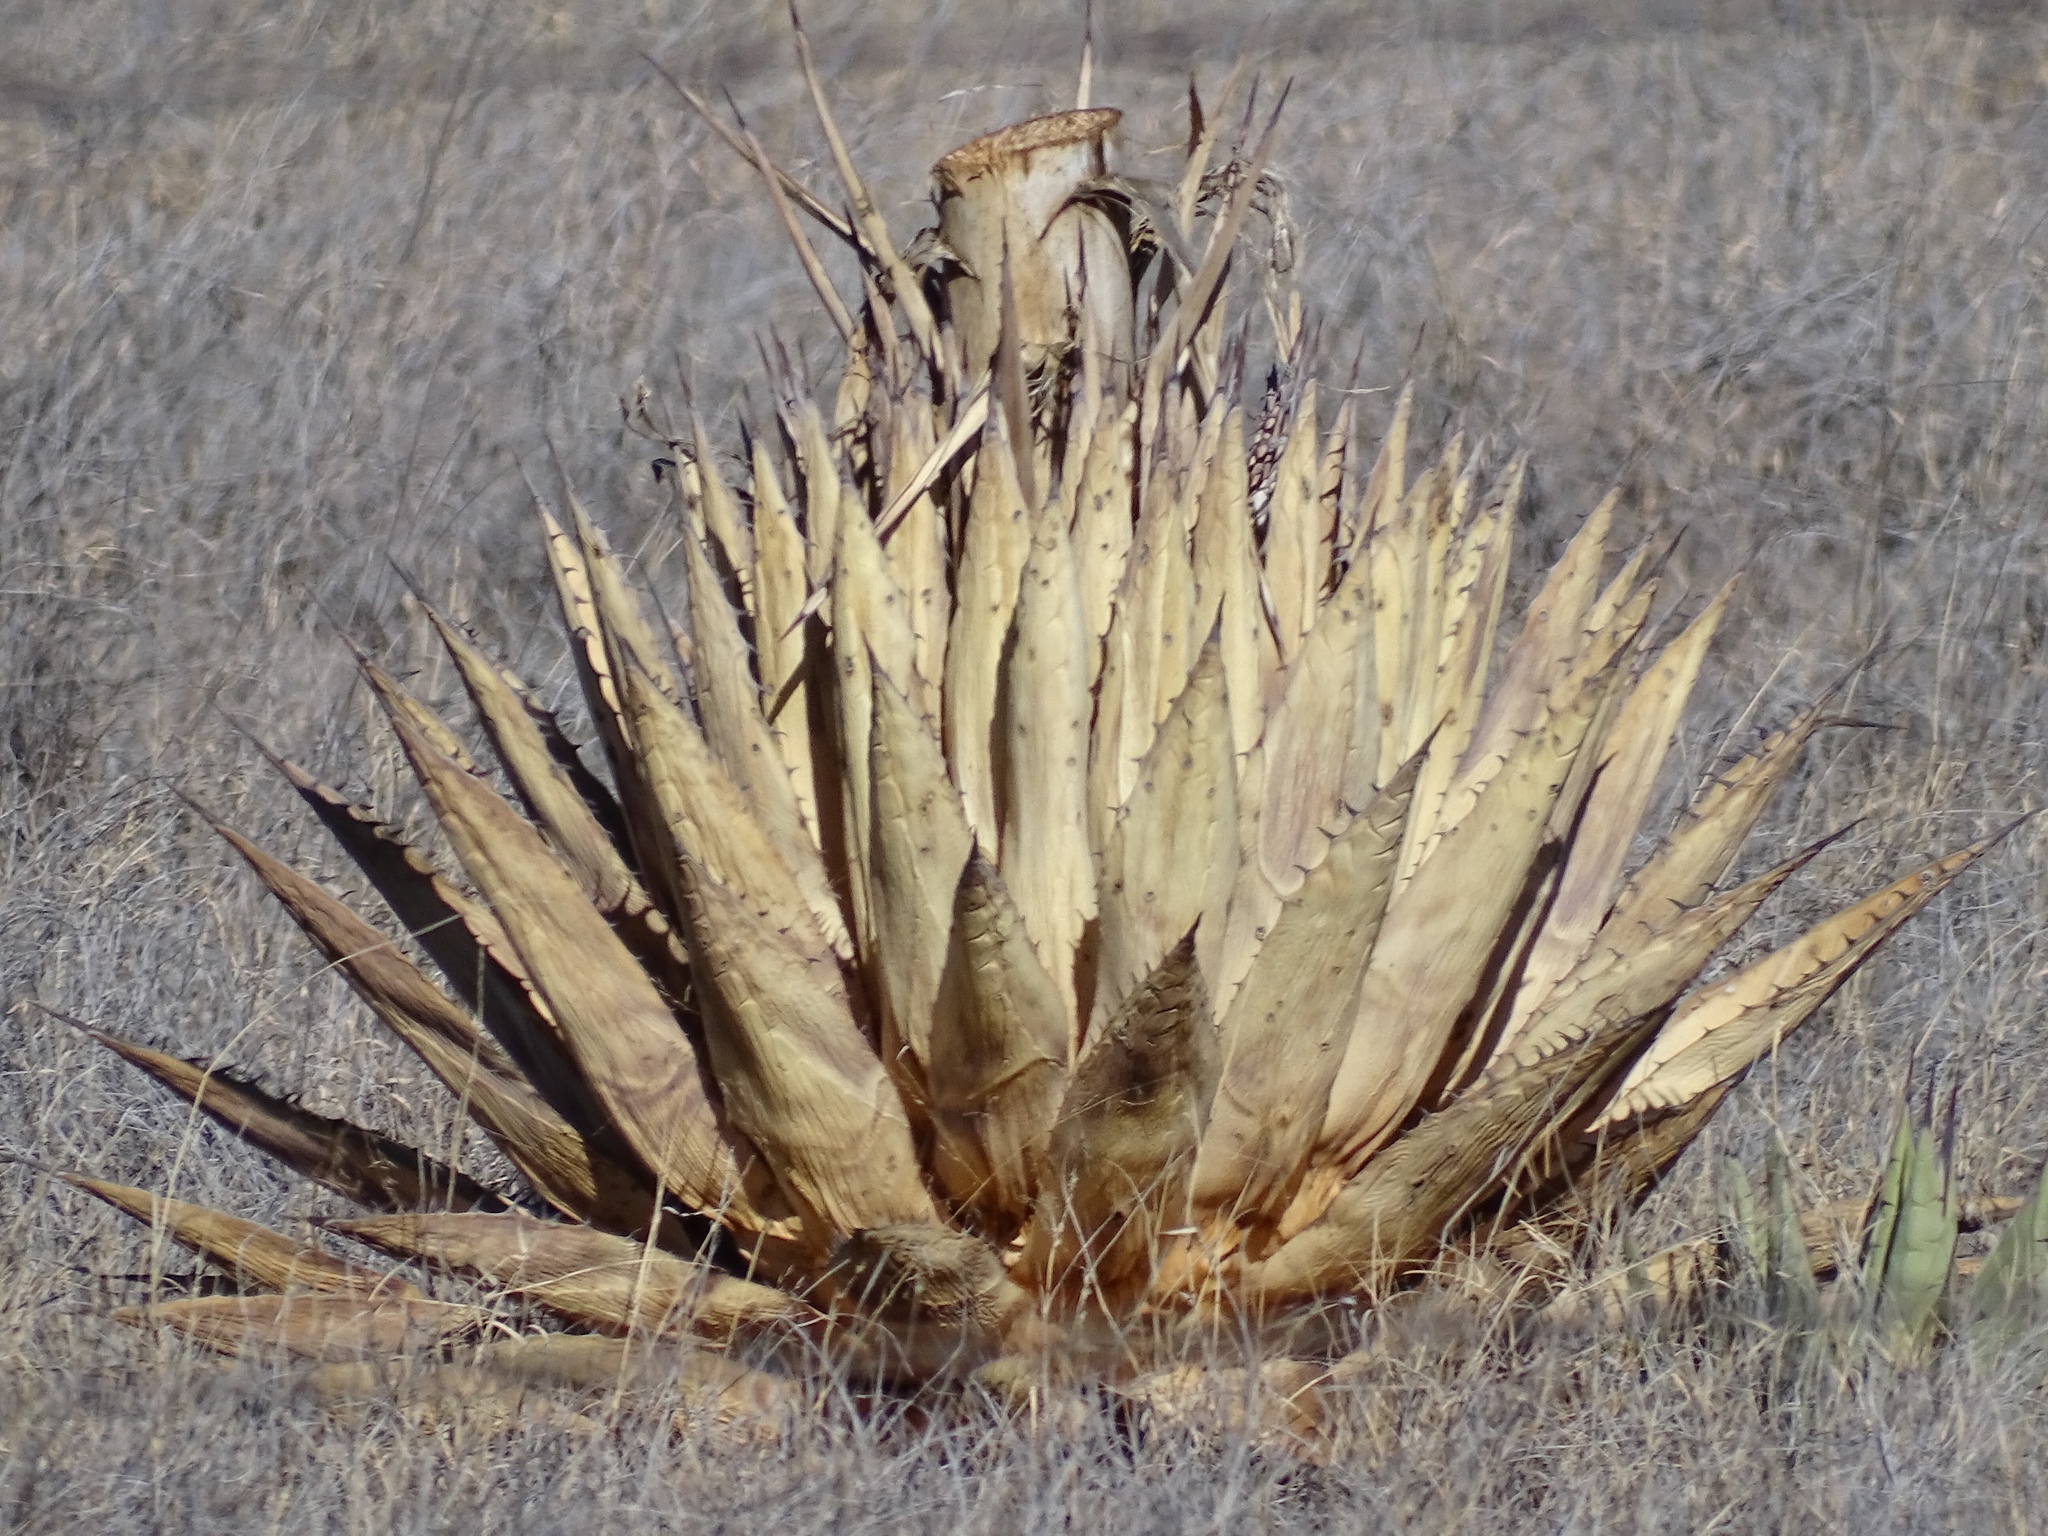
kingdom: Plantae
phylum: Tracheophyta
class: Liliopsida
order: Asparagales
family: Asparagaceae
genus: Agave
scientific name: Agave parryi
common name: Parry's agave
